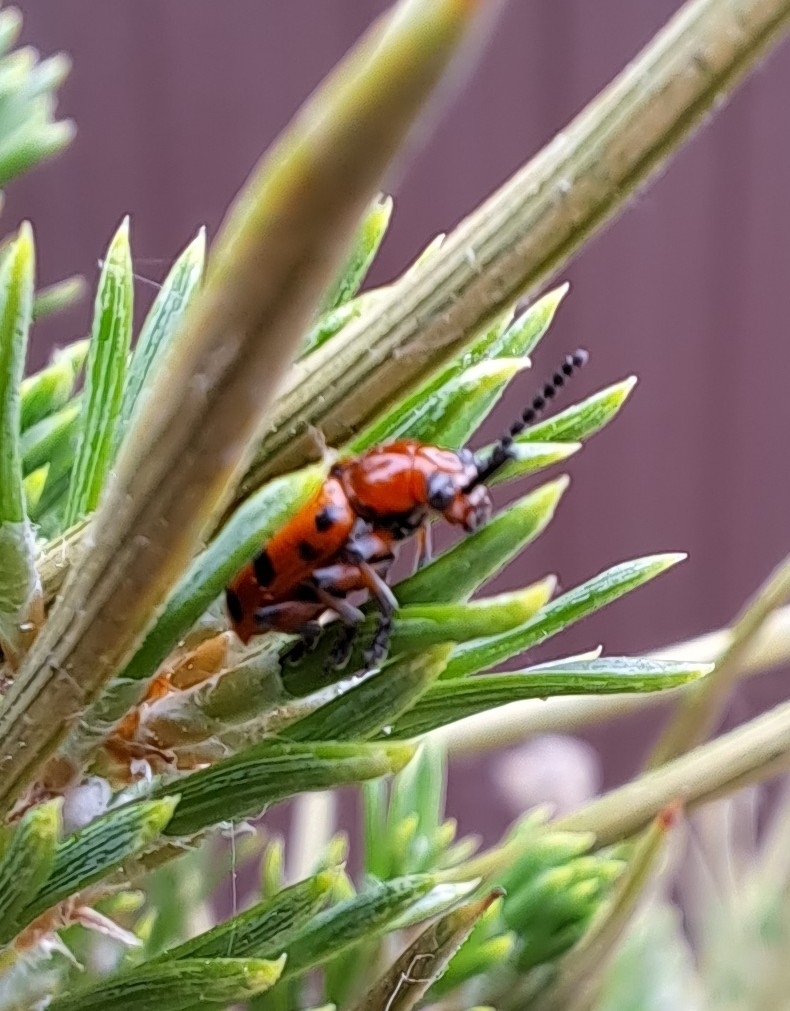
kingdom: Animalia
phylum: Arthropoda
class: Insecta
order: Coleoptera
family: Chrysomelidae
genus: Crioceris
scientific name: Crioceris duodecimpunctata
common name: Twelve-spotted asparagus beetle
